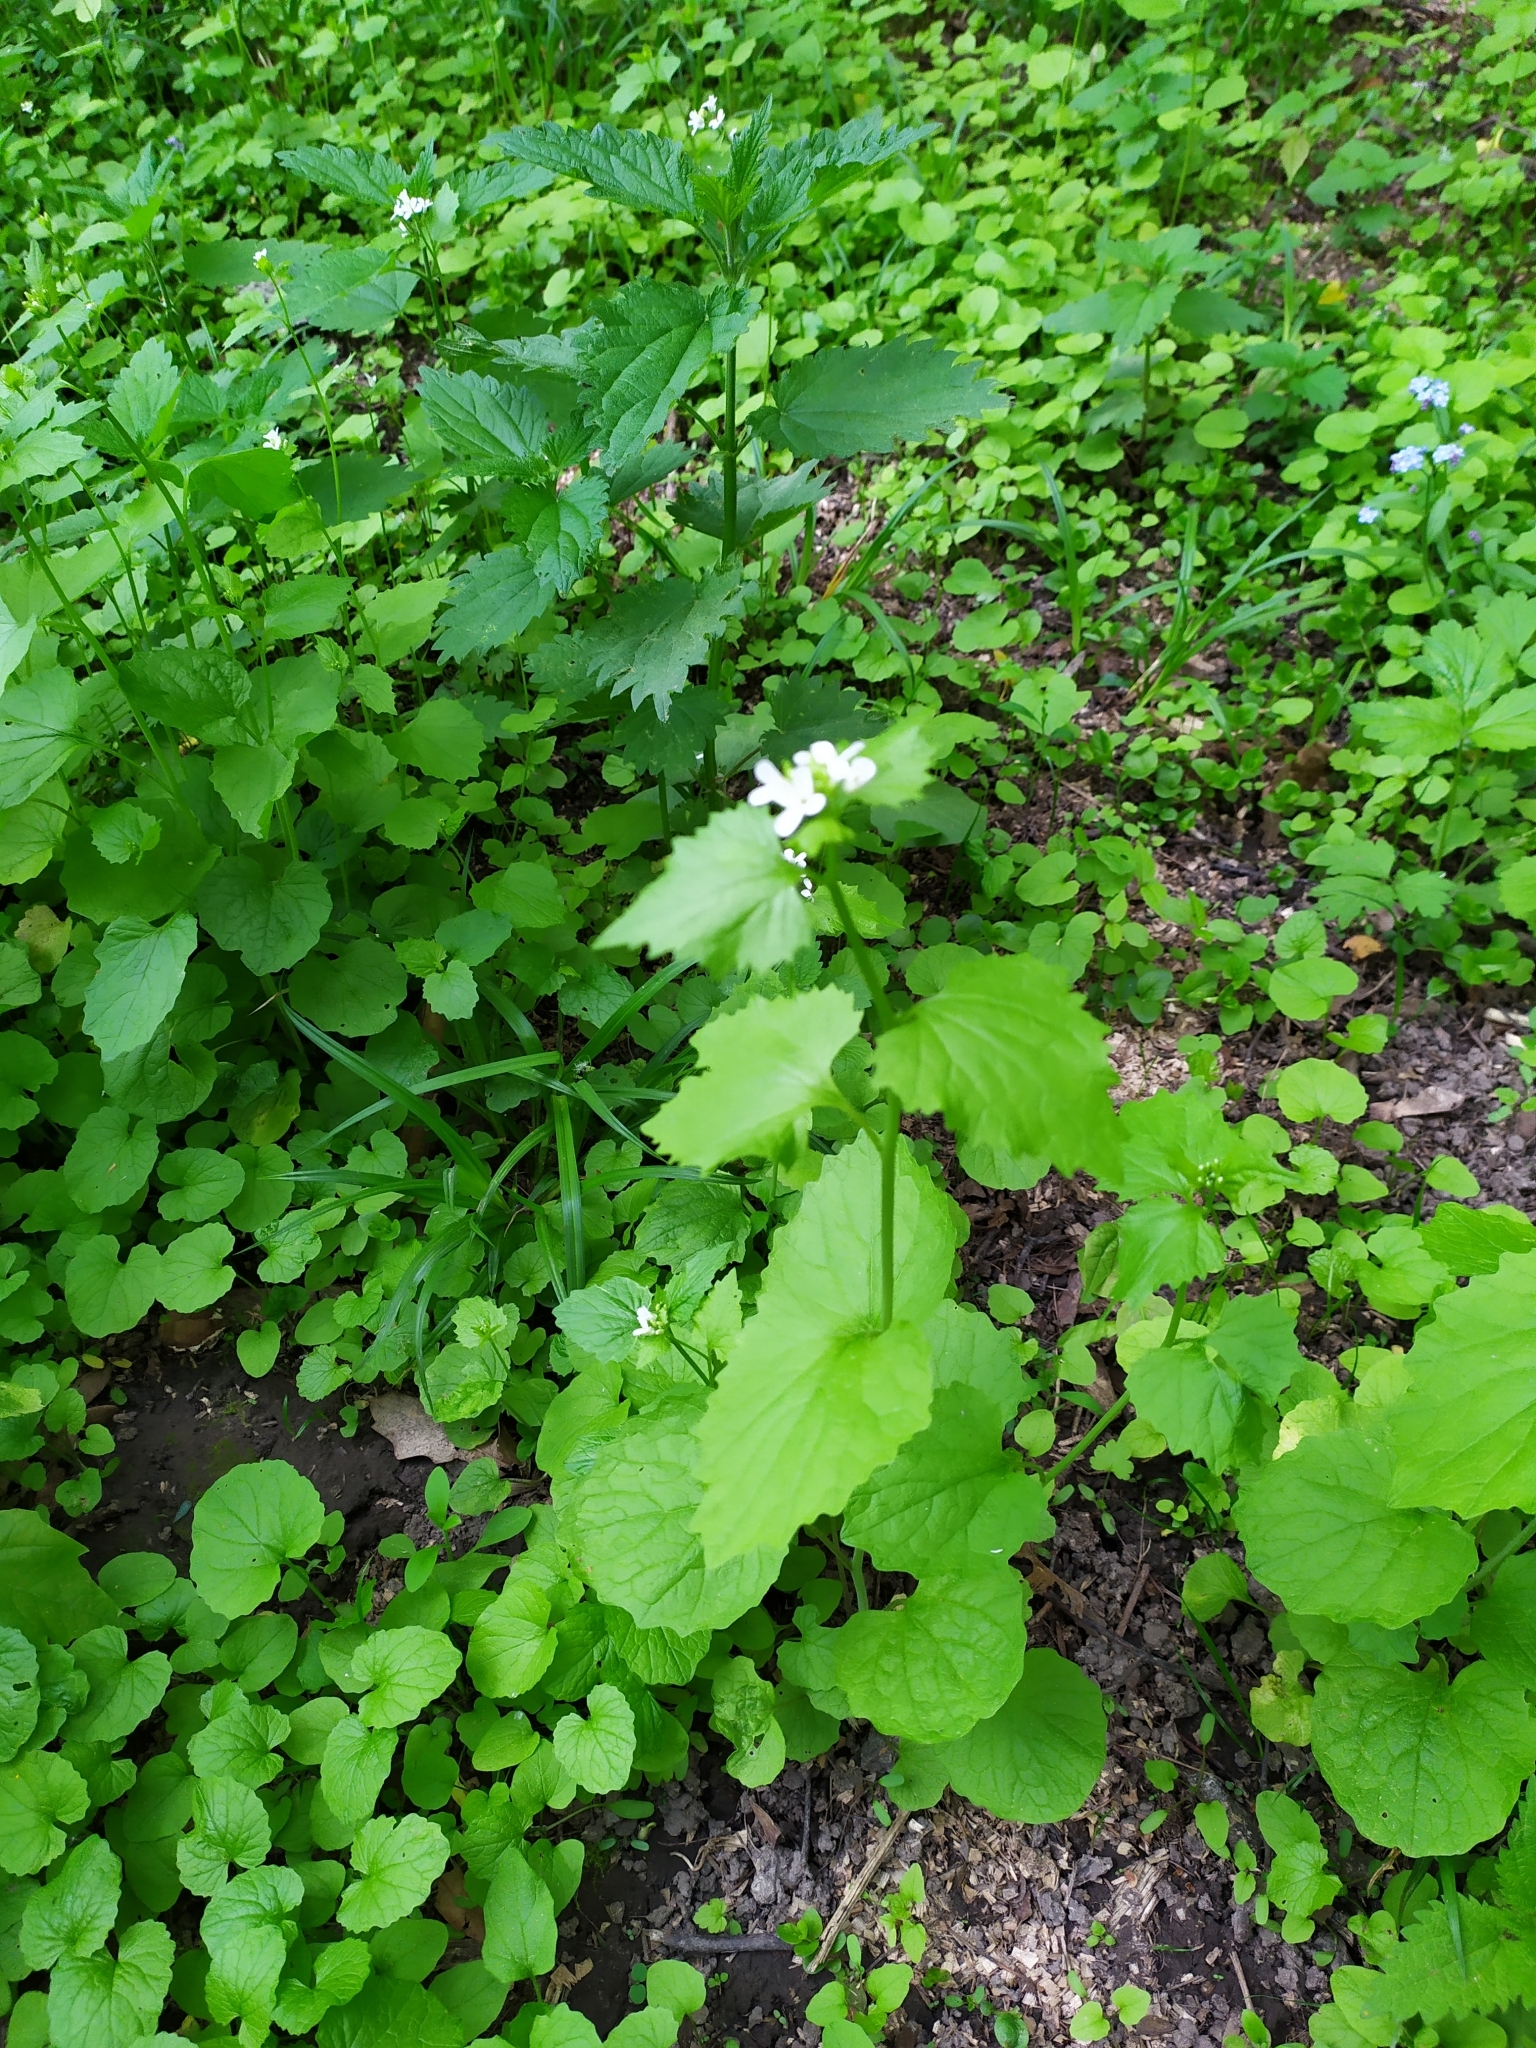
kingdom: Plantae
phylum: Tracheophyta
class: Magnoliopsida
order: Brassicales
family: Brassicaceae
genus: Alliaria
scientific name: Alliaria petiolata
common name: Garlic mustard
